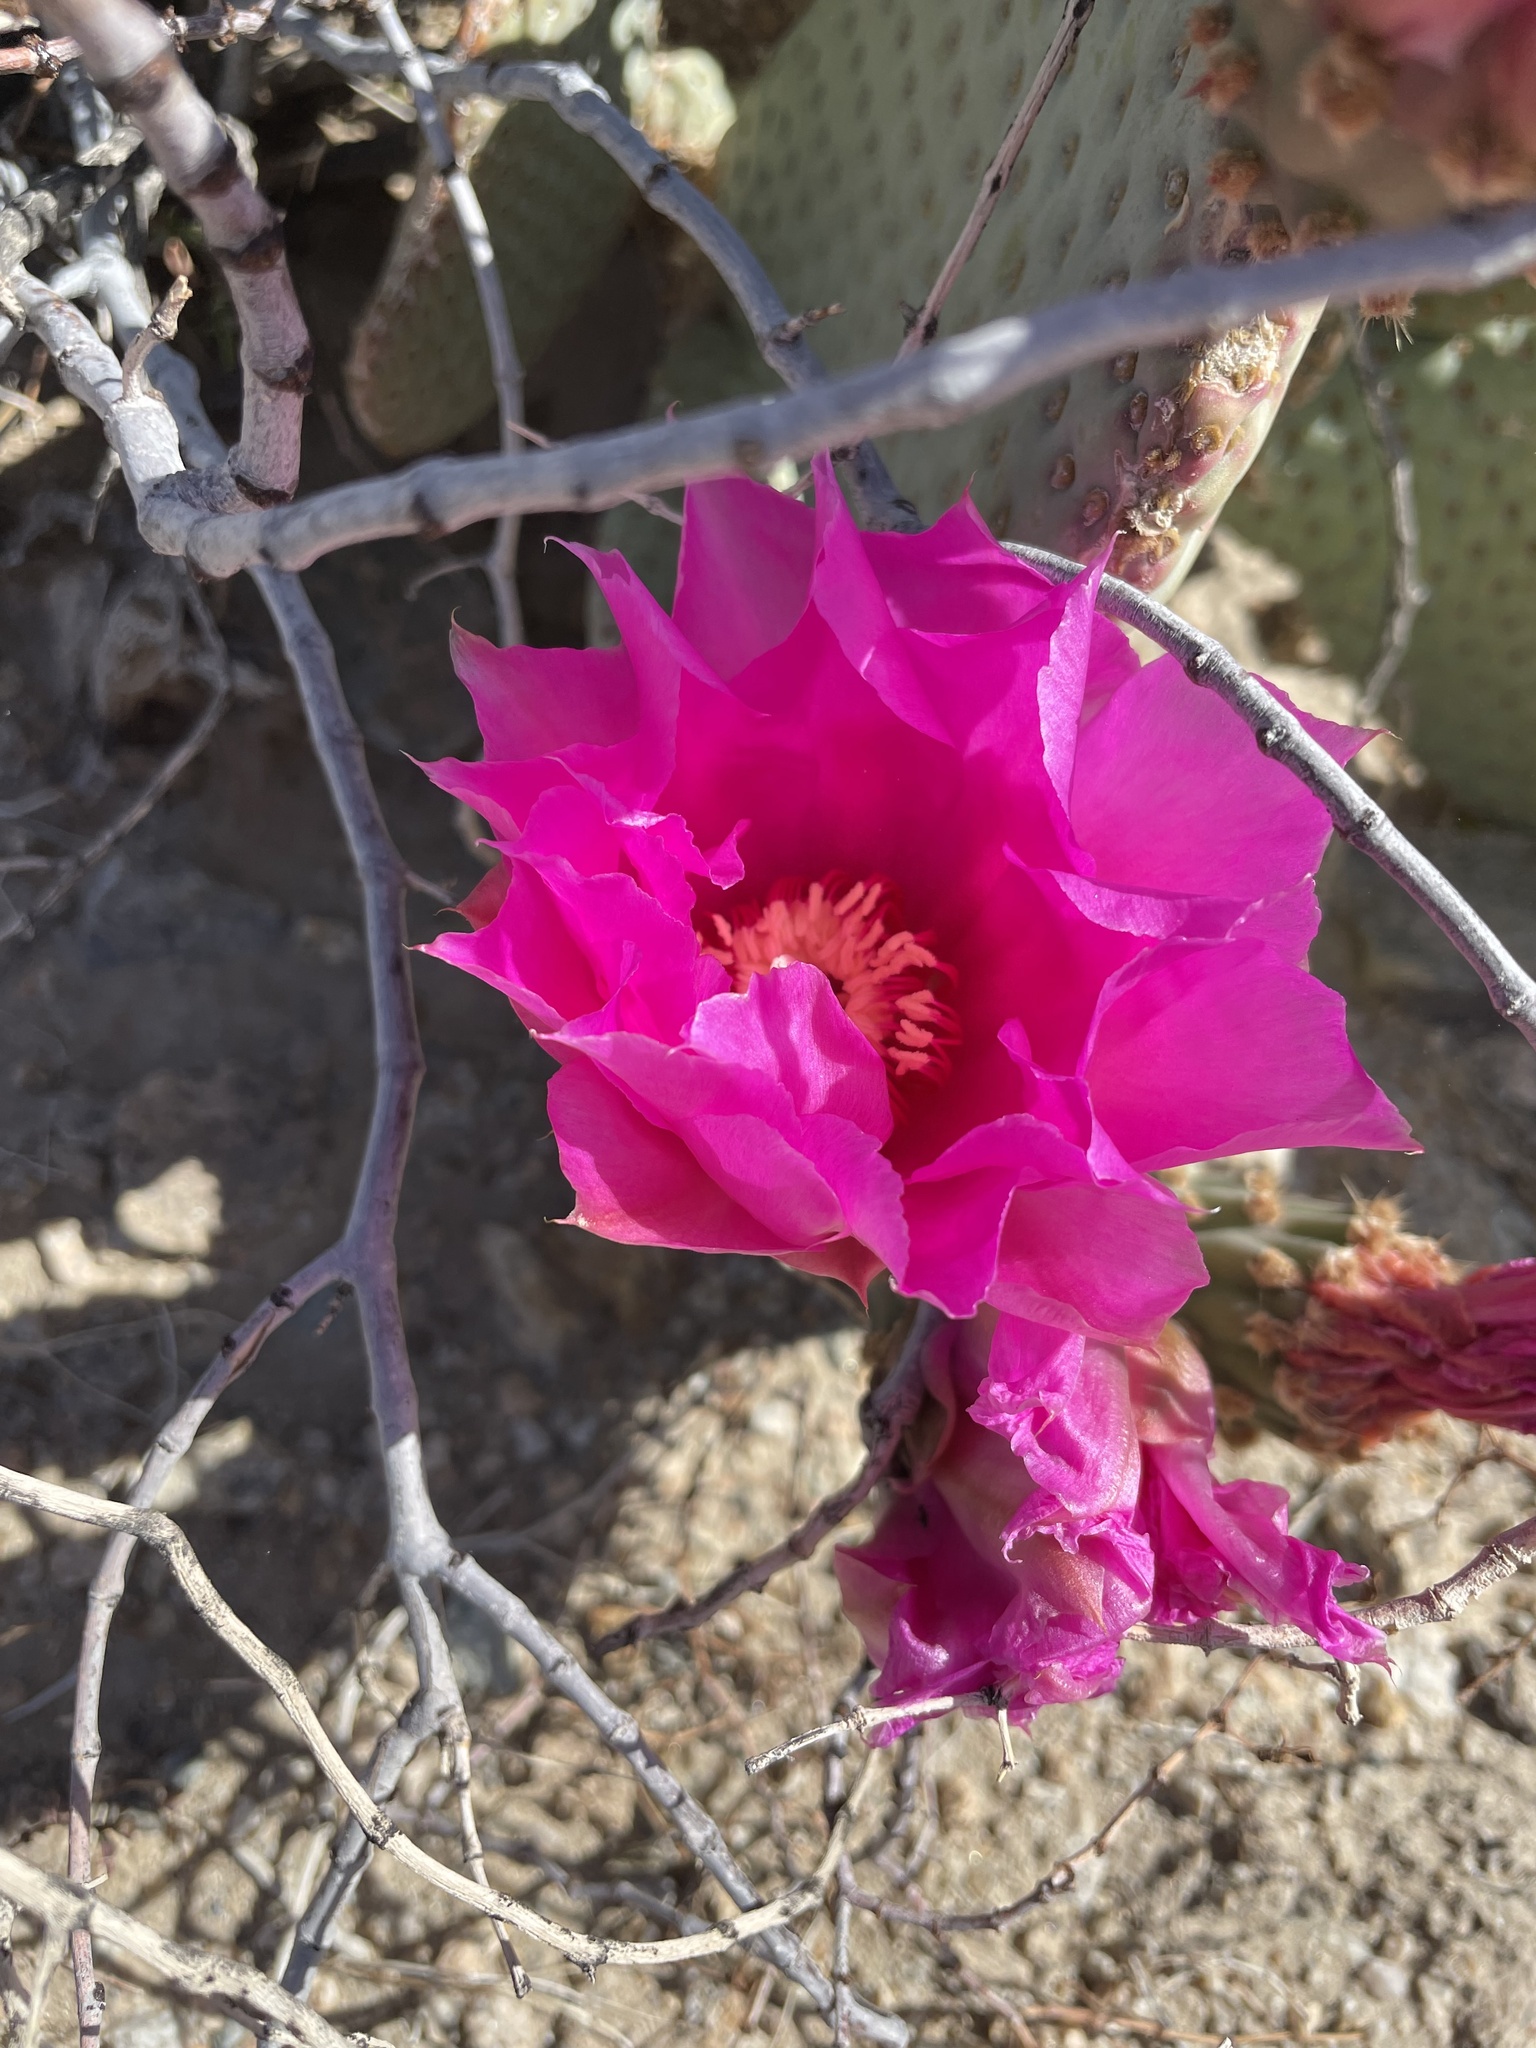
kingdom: Plantae
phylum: Tracheophyta
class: Magnoliopsida
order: Caryophyllales
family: Cactaceae
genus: Opuntia
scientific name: Opuntia basilaris
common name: Beavertail prickly-pear
